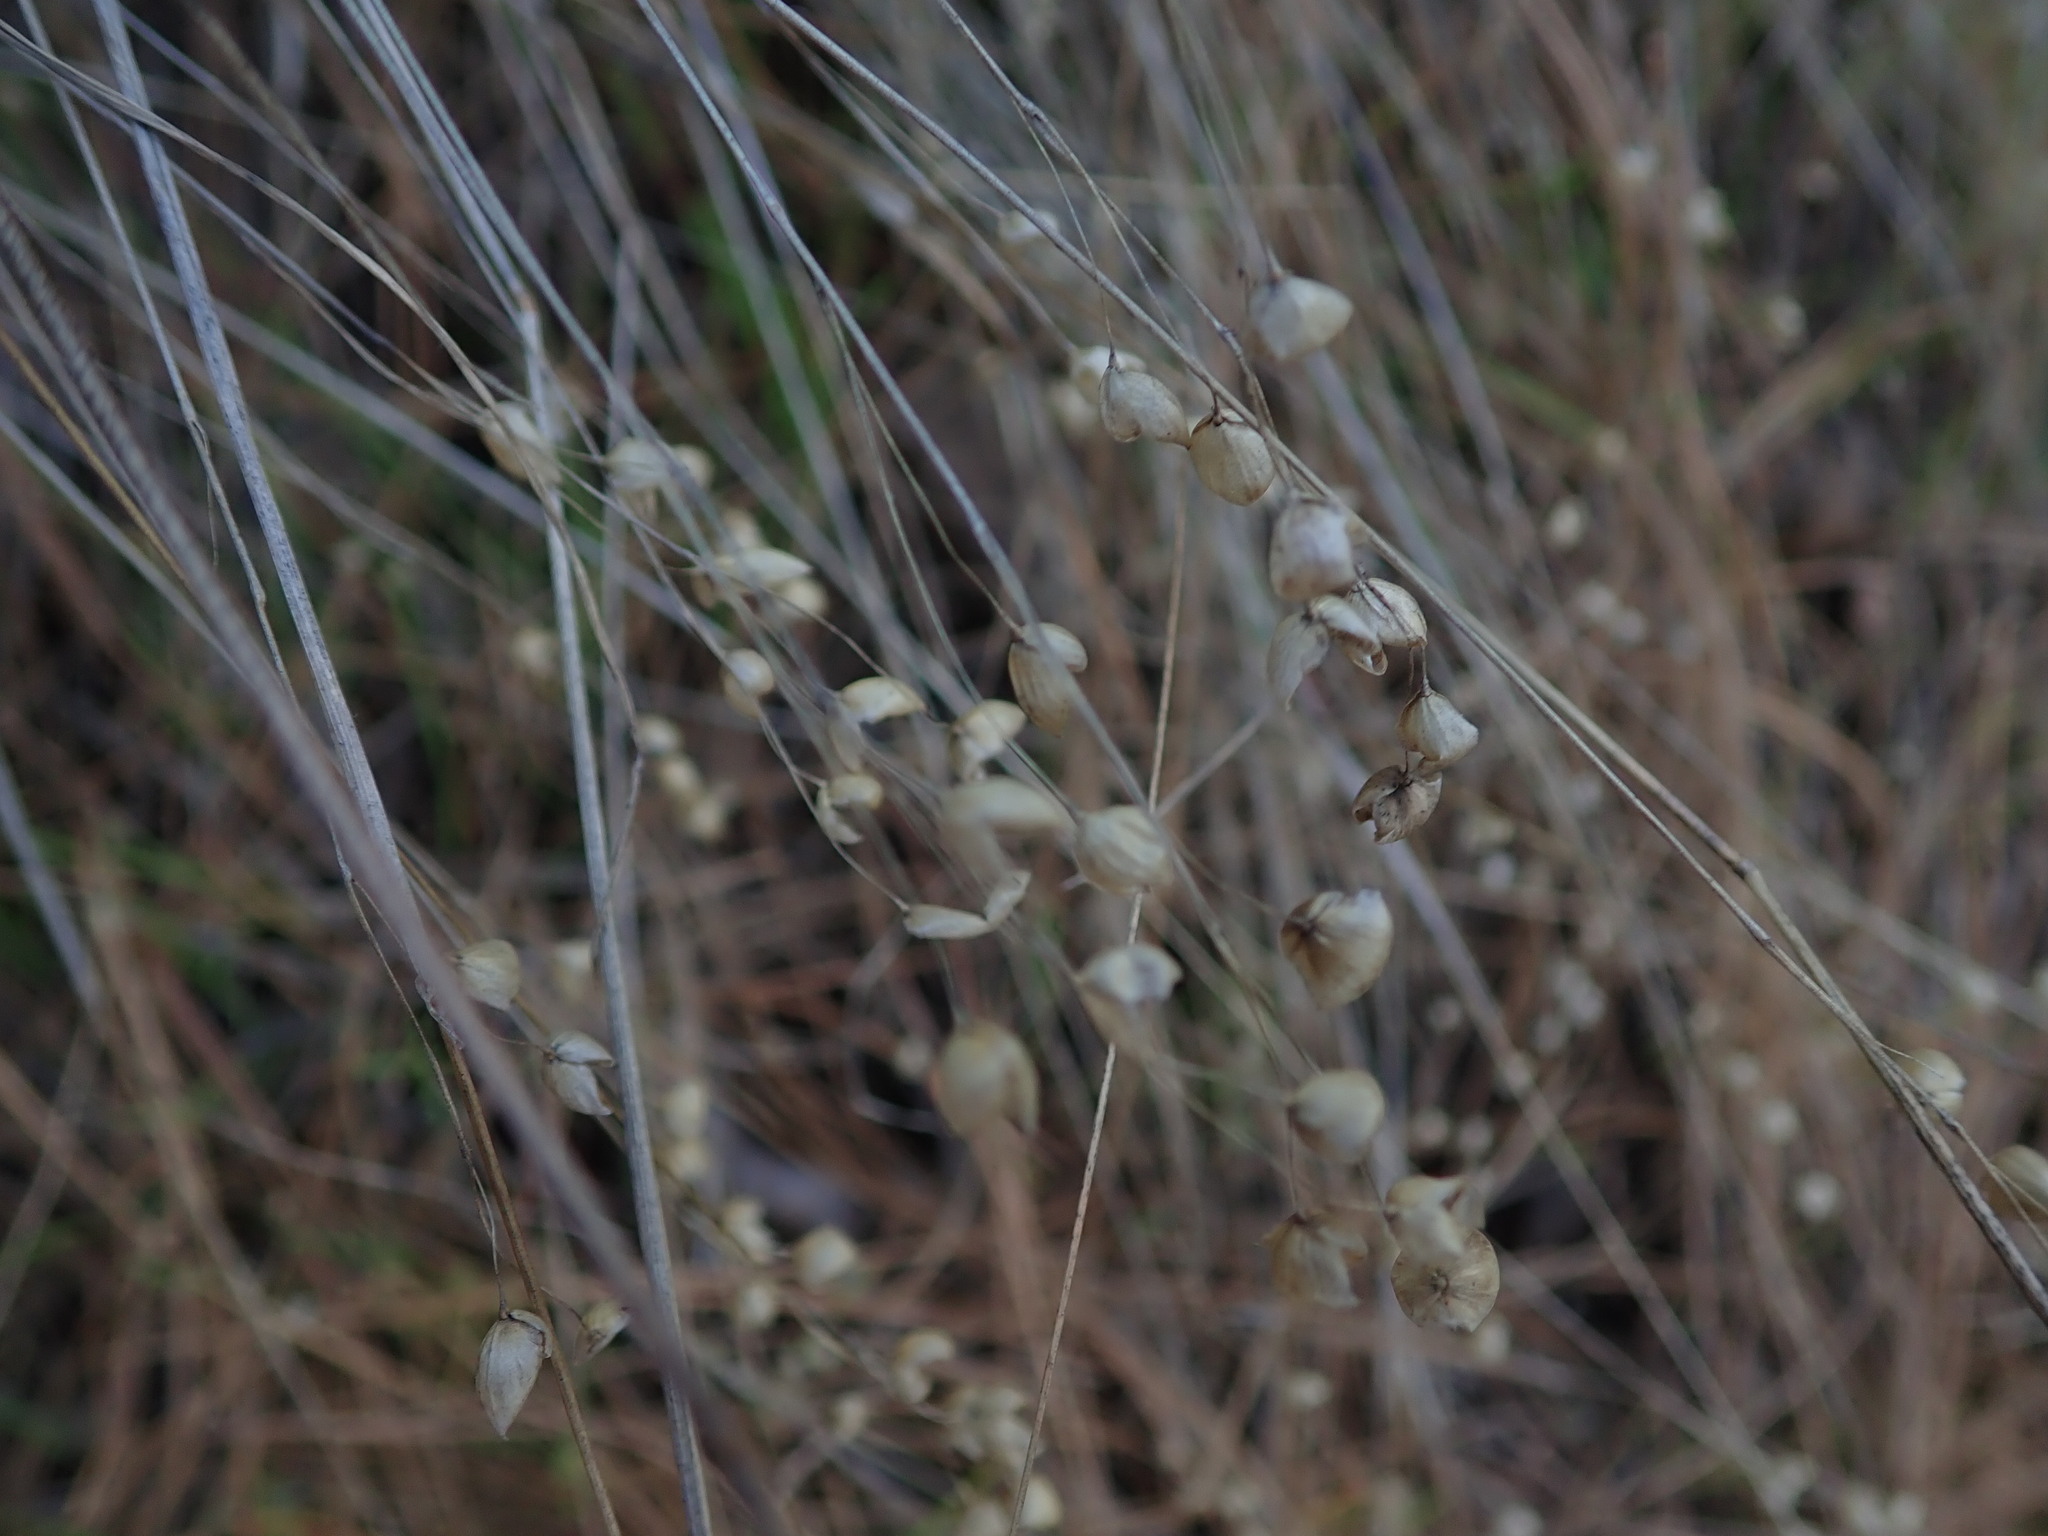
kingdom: Plantae
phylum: Tracheophyta
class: Liliopsida
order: Poales
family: Poaceae
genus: Briza
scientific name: Briza maxima
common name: Big quakinggrass
